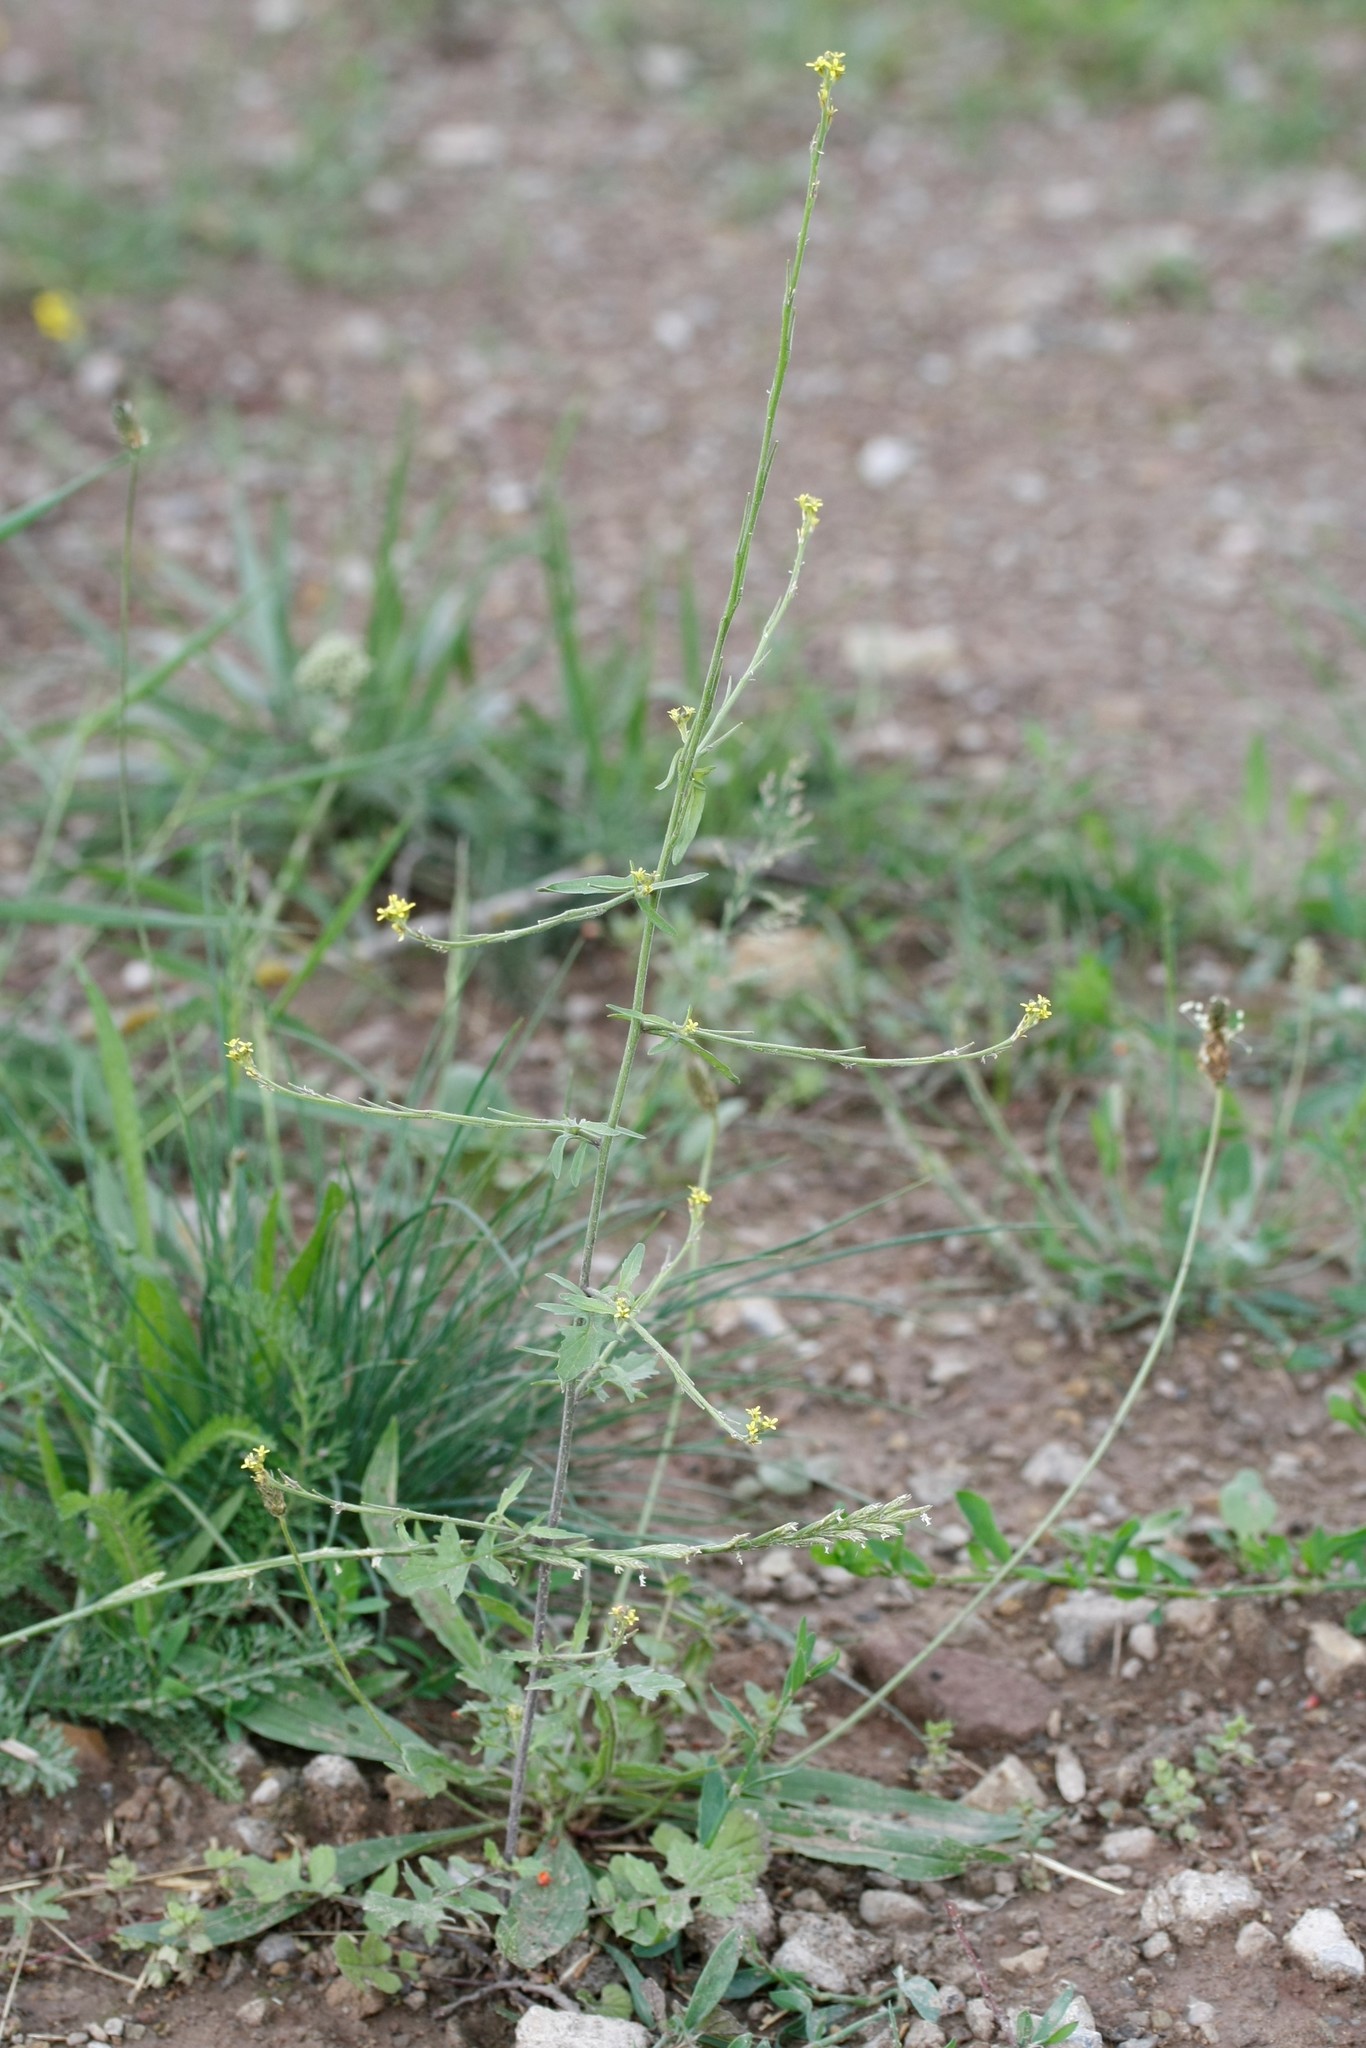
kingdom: Plantae
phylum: Tracheophyta
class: Magnoliopsida
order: Brassicales
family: Brassicaceae
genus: Sisymbrium
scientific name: Sisymbrium officinale
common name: Hedge mustard
